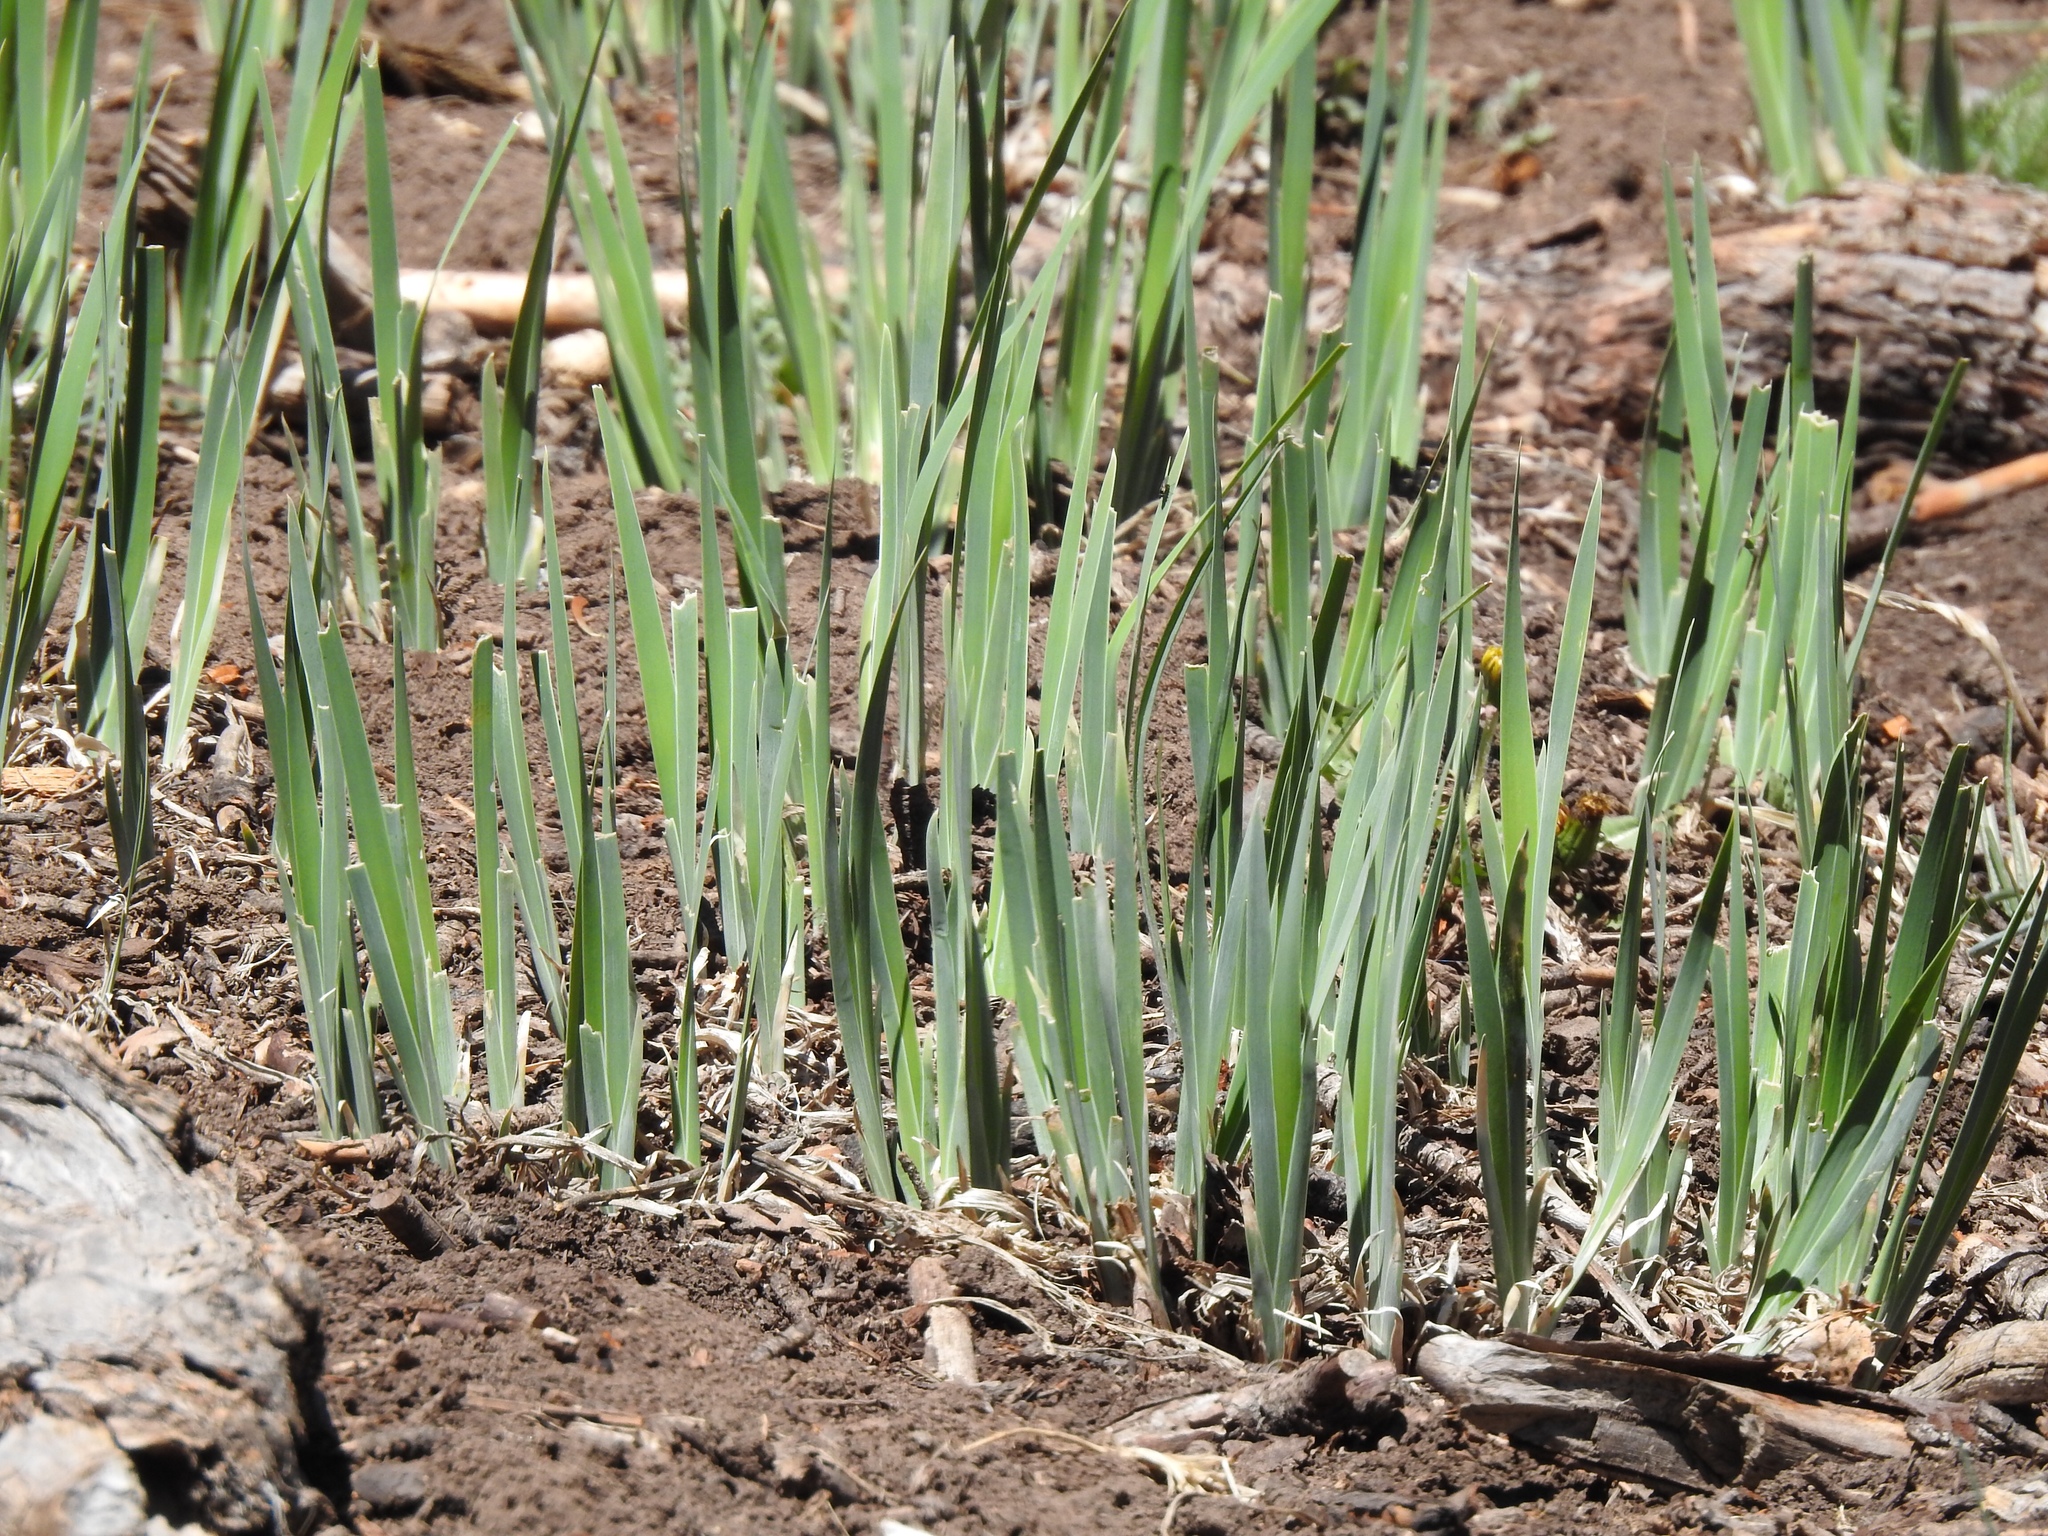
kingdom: Plantae
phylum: Tracheophyta
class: Liliopsida
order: Asparagales
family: Iridaceae
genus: Iris
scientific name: Iris missouriensis
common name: Rocky mountain iris
